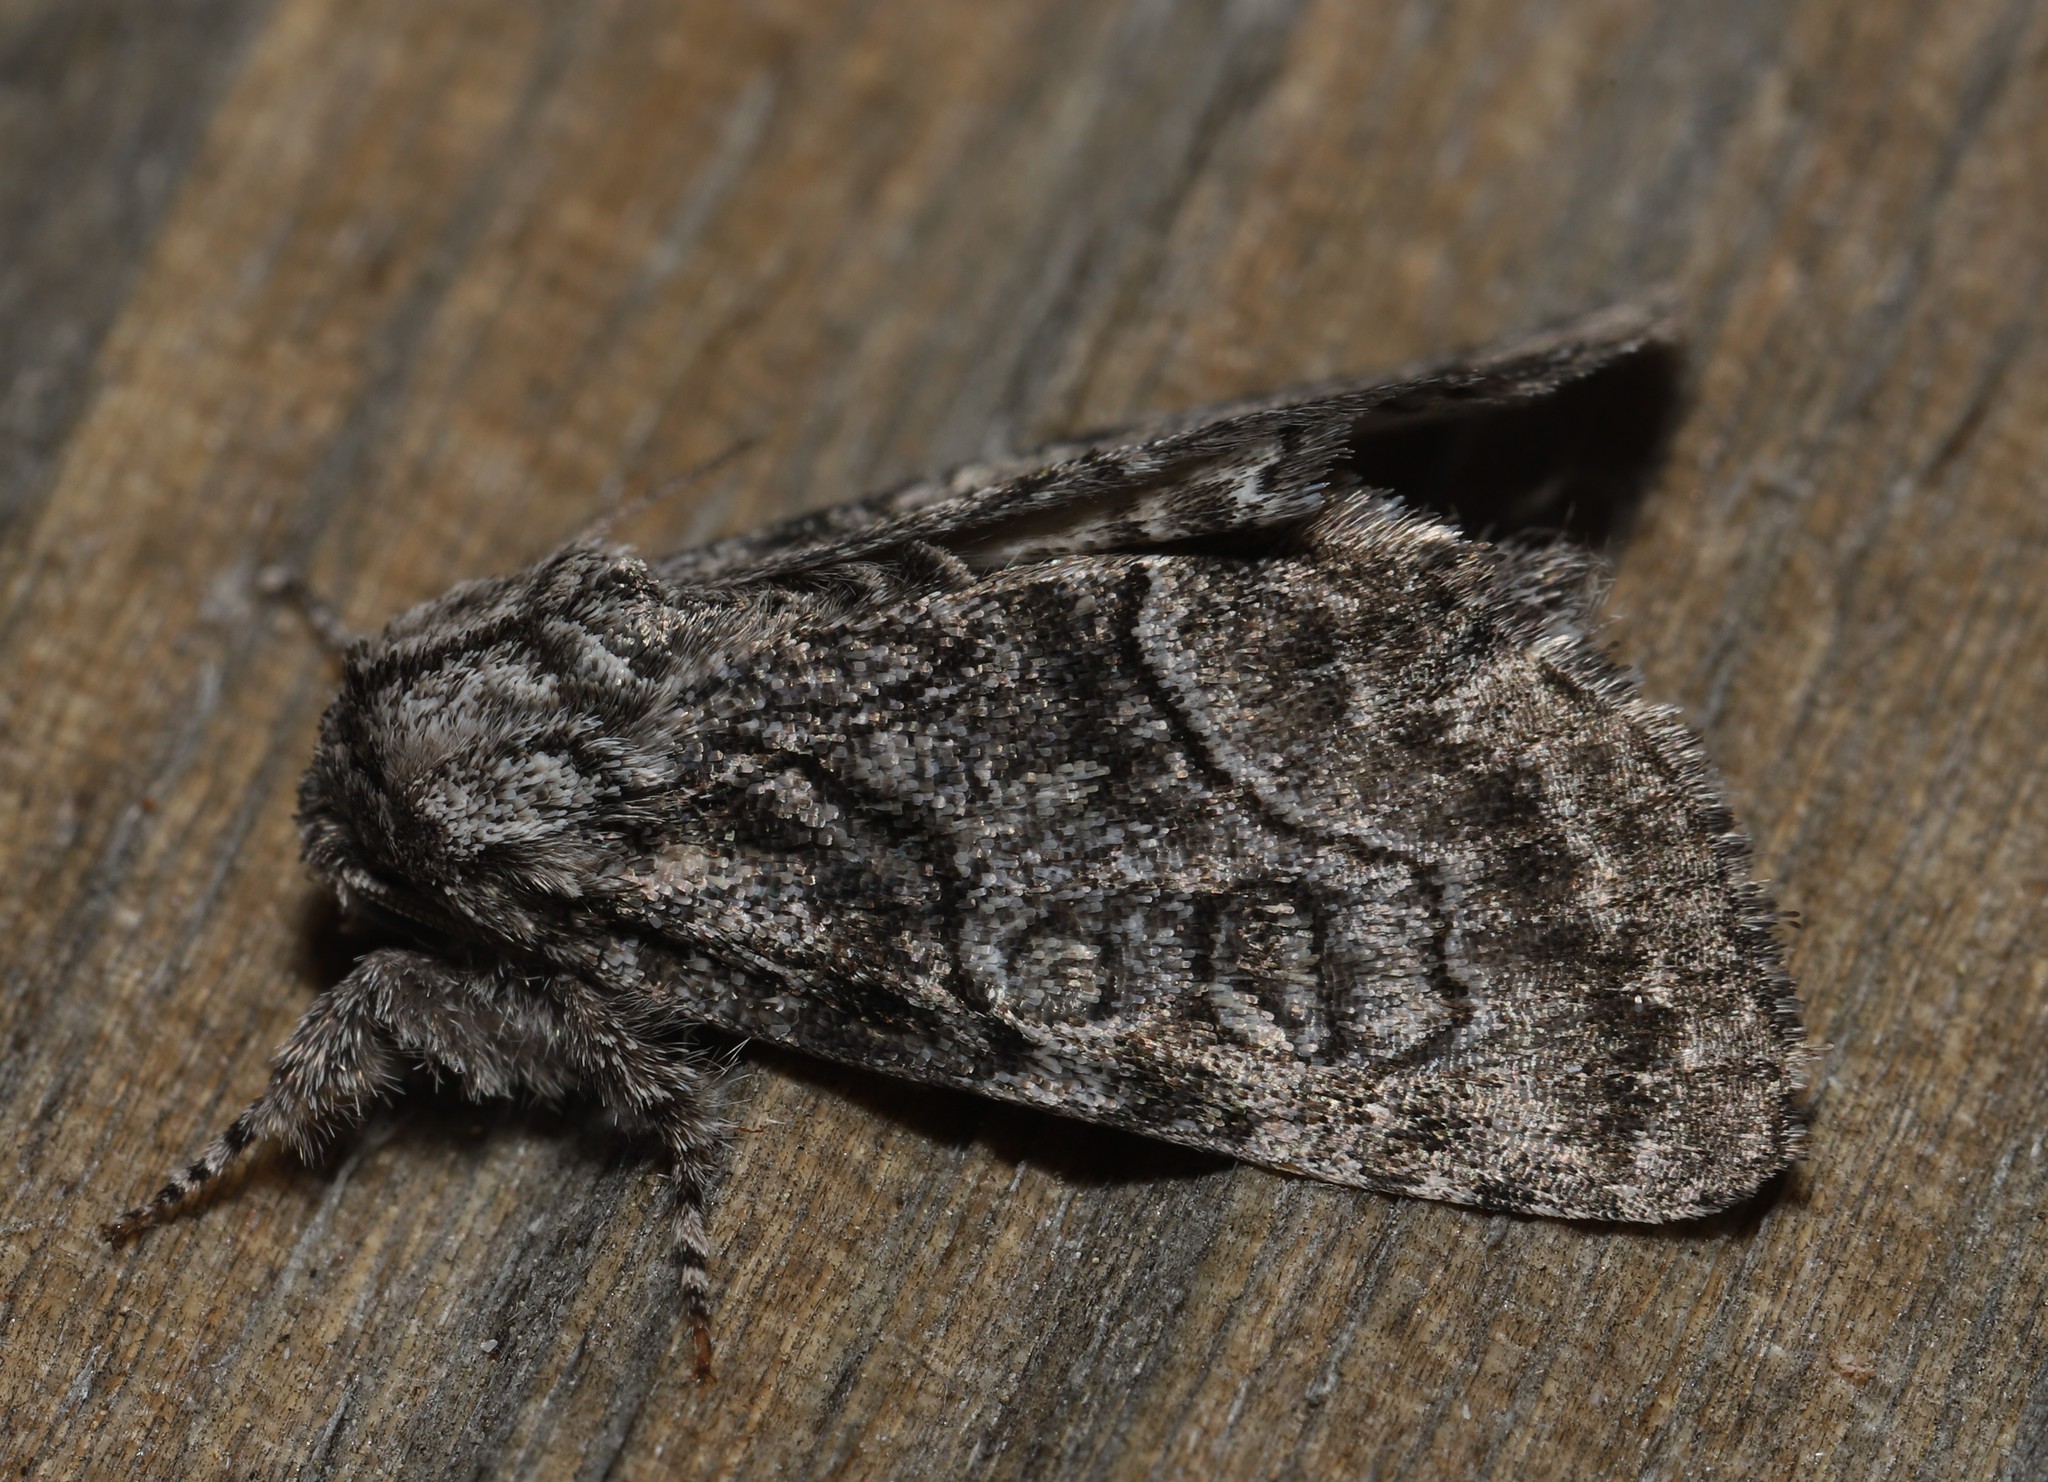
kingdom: Animalia
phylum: Arthropoda
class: Insecta
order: Lepidoptera
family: Noctuidae
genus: Raphia
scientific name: Raphia frater
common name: Brother
